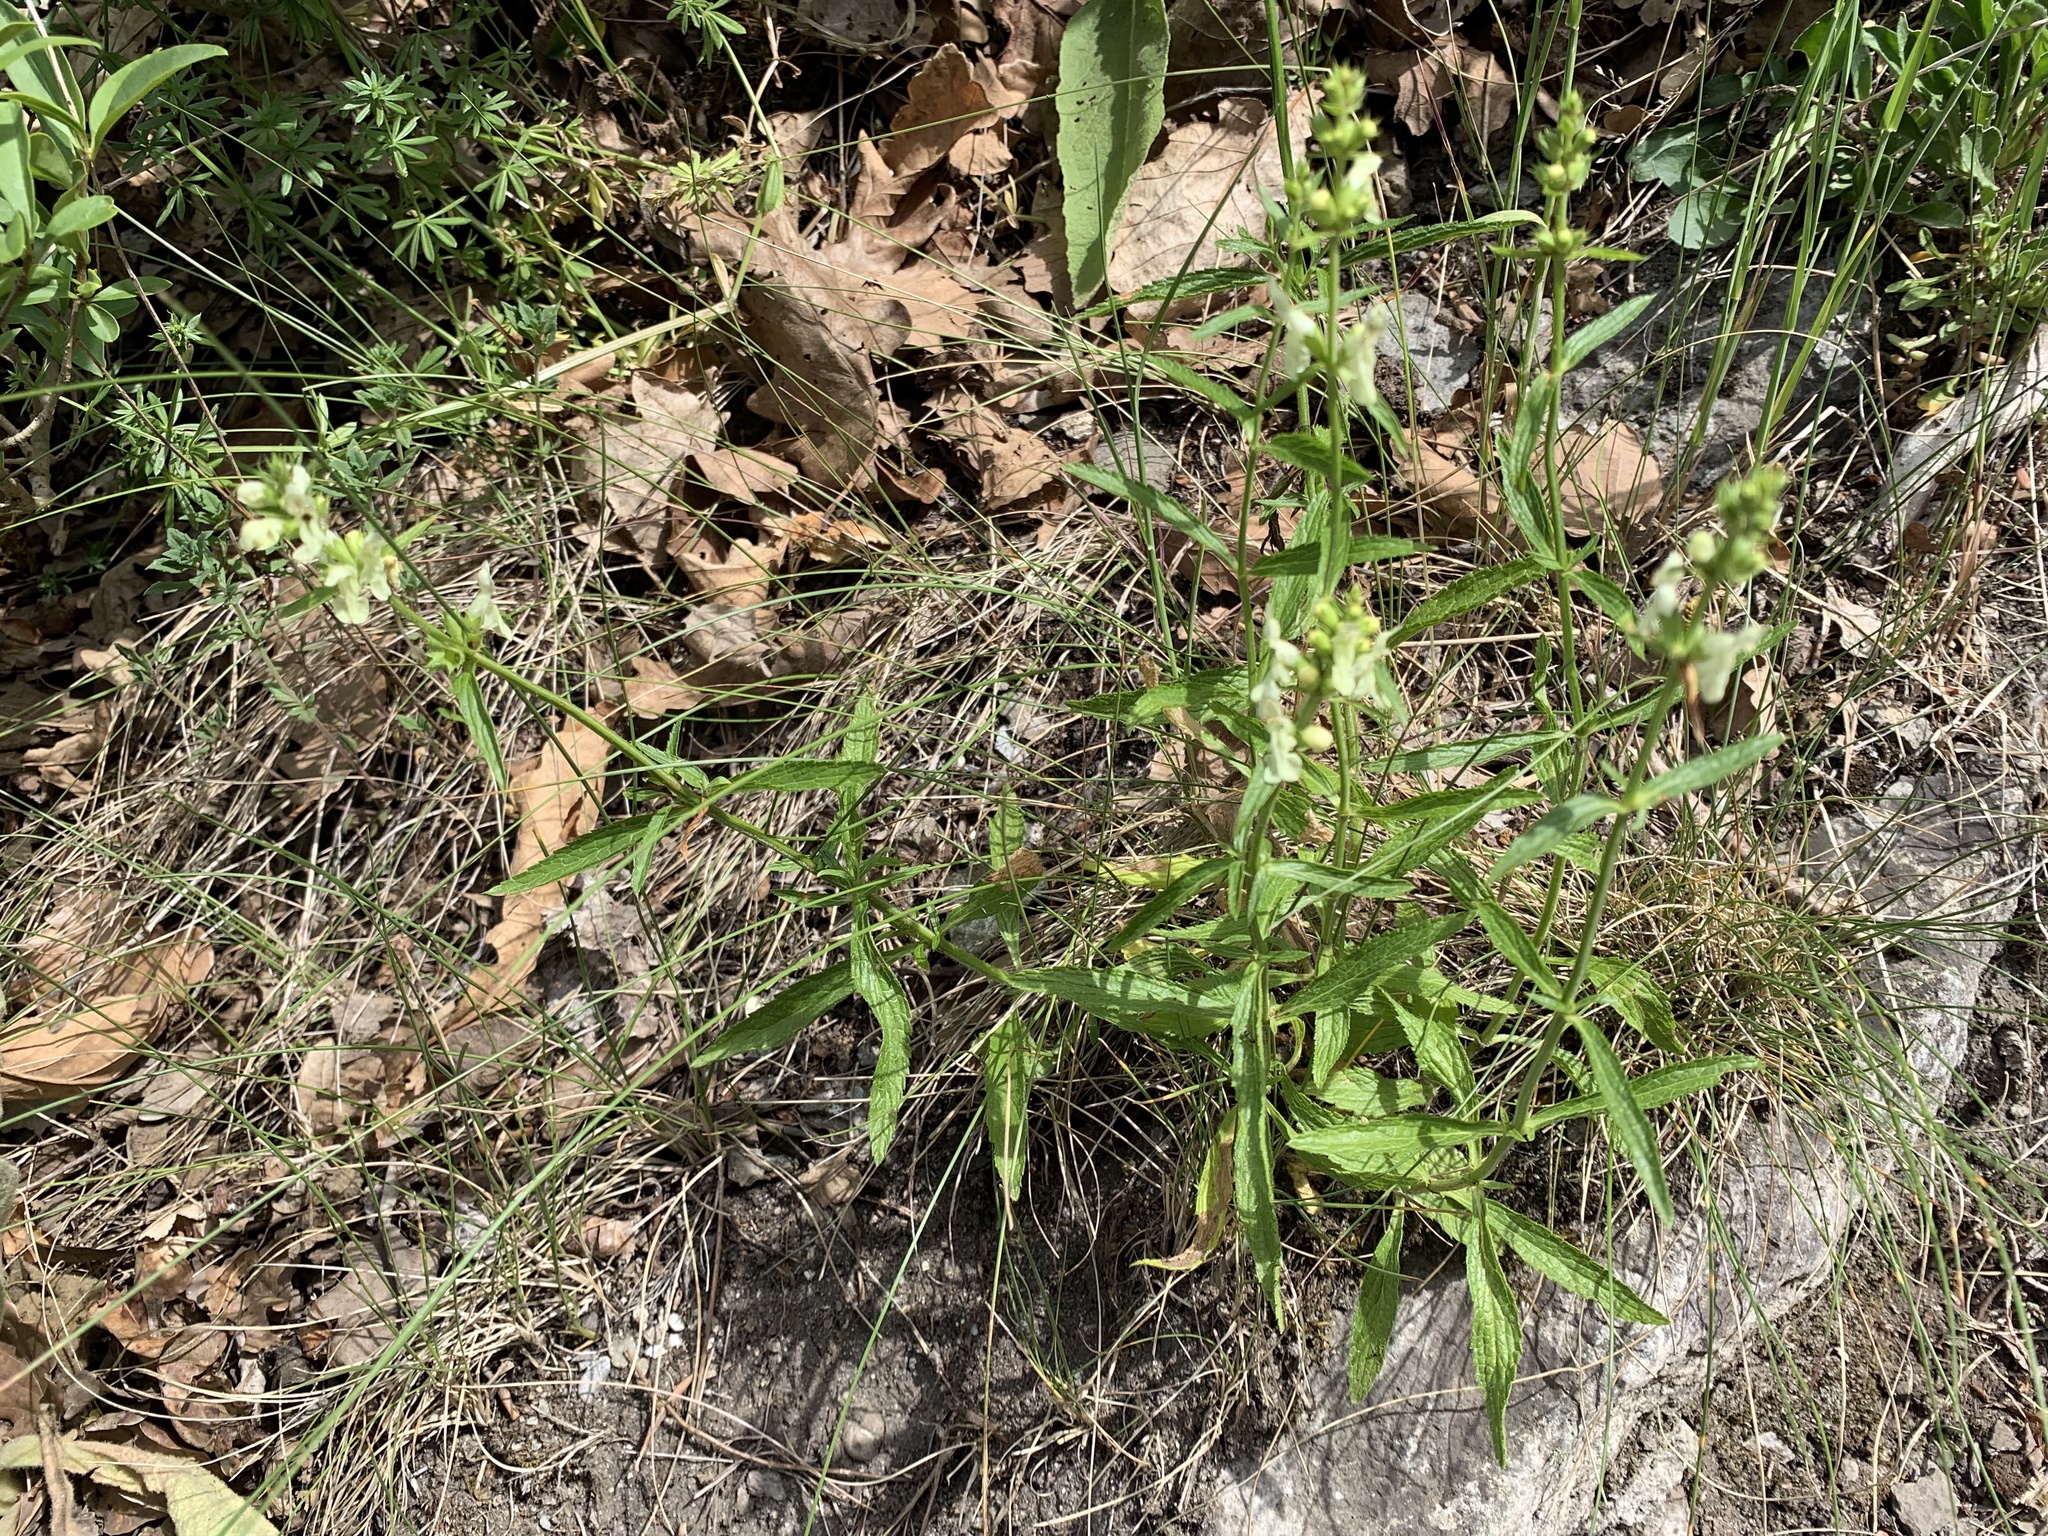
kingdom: Plantae
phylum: Tracheophyta
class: Magnoliopsida
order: Lamiales
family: Lamiaceae
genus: Stachys
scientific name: Stachys recta
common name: Perennial yellow-woundwort
